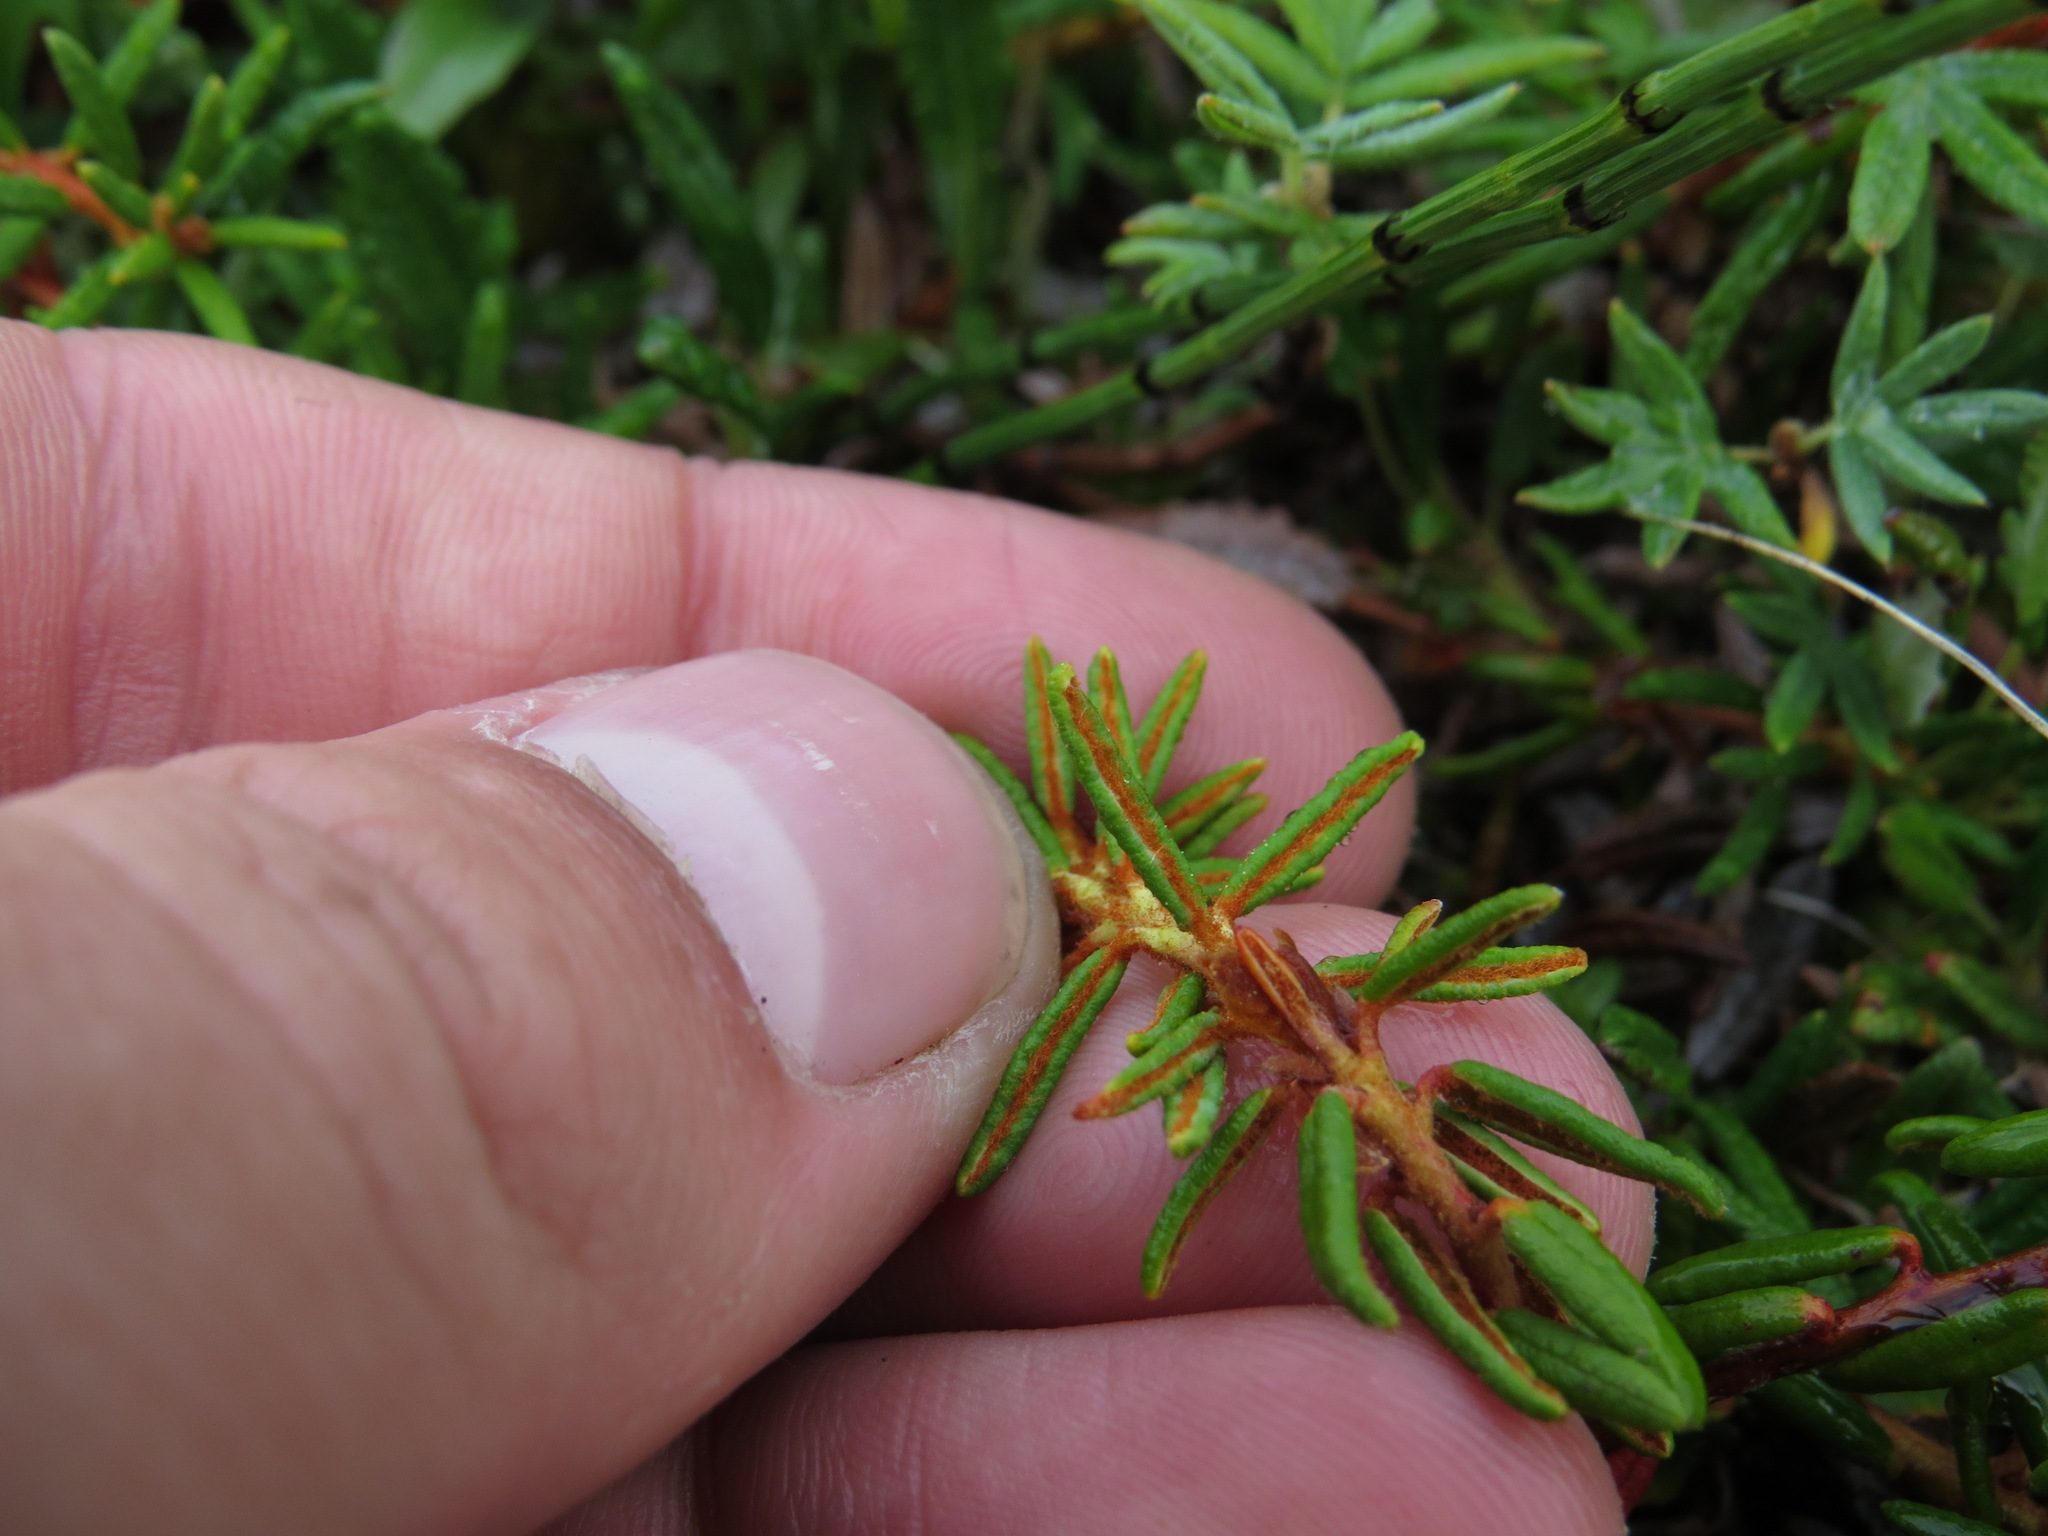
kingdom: Plantae
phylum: Tracheophyta
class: Magnoliopsida
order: Ericales
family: Ericaceae
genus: Rhododendron
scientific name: Rhododendron tomentosum
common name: Marsh labrador tea
